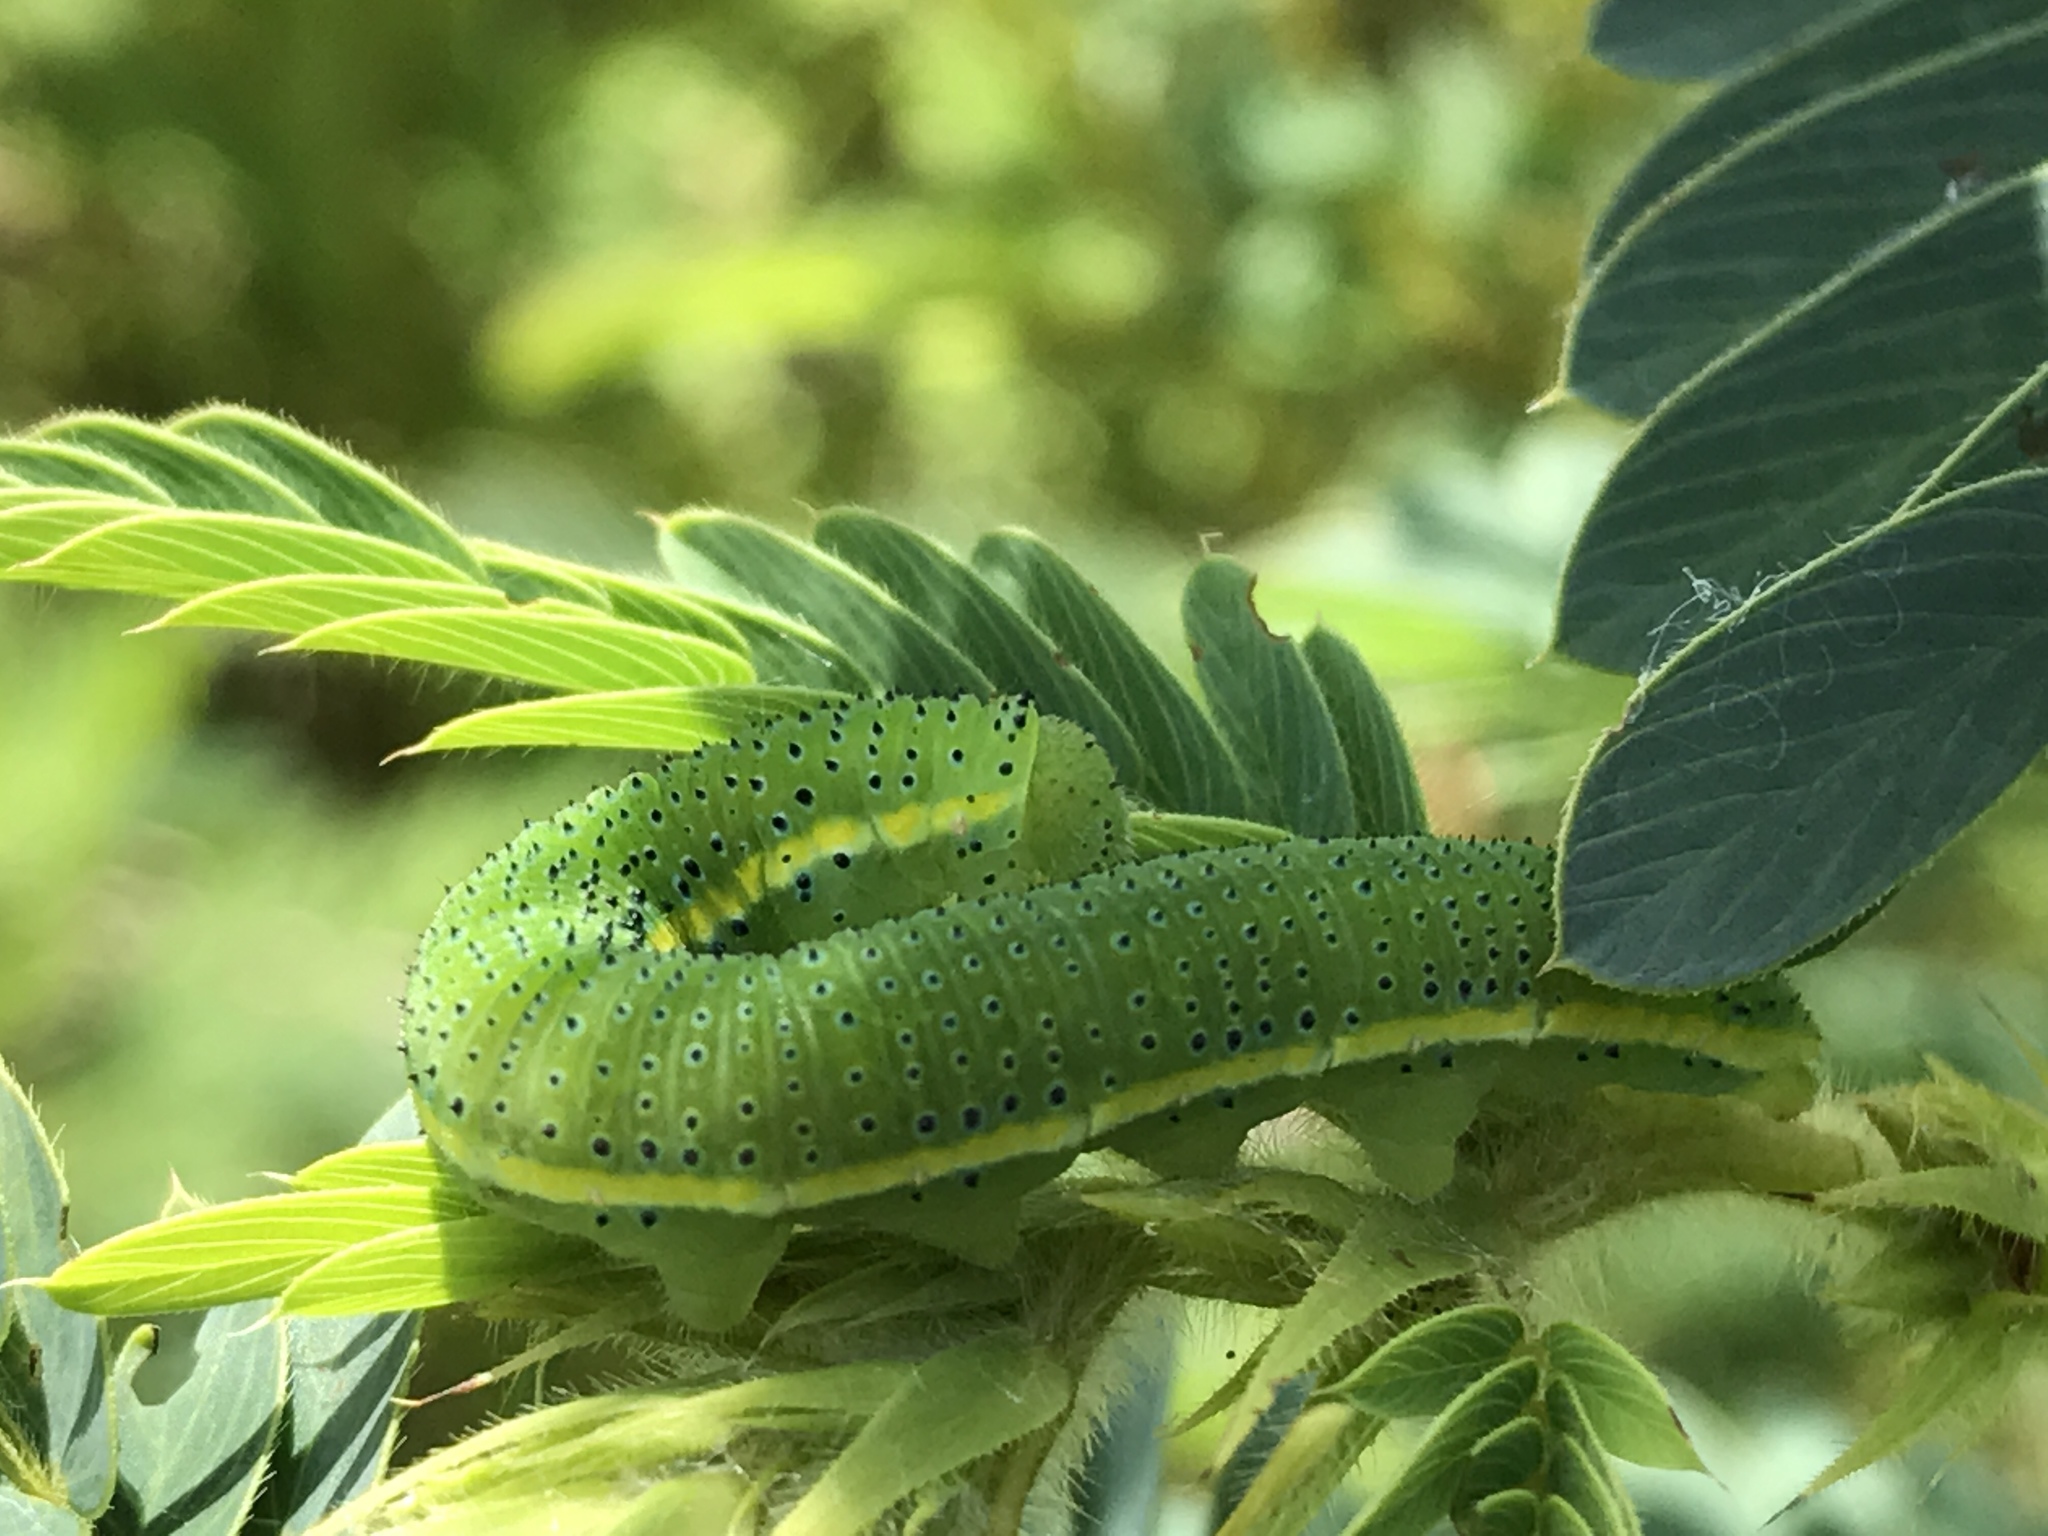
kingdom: Animalia
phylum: Arthropoda
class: Insecta
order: Lepidoptera
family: Pieridae
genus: Phoebis
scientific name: Phoebis sennae
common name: Cloudless sulphur
